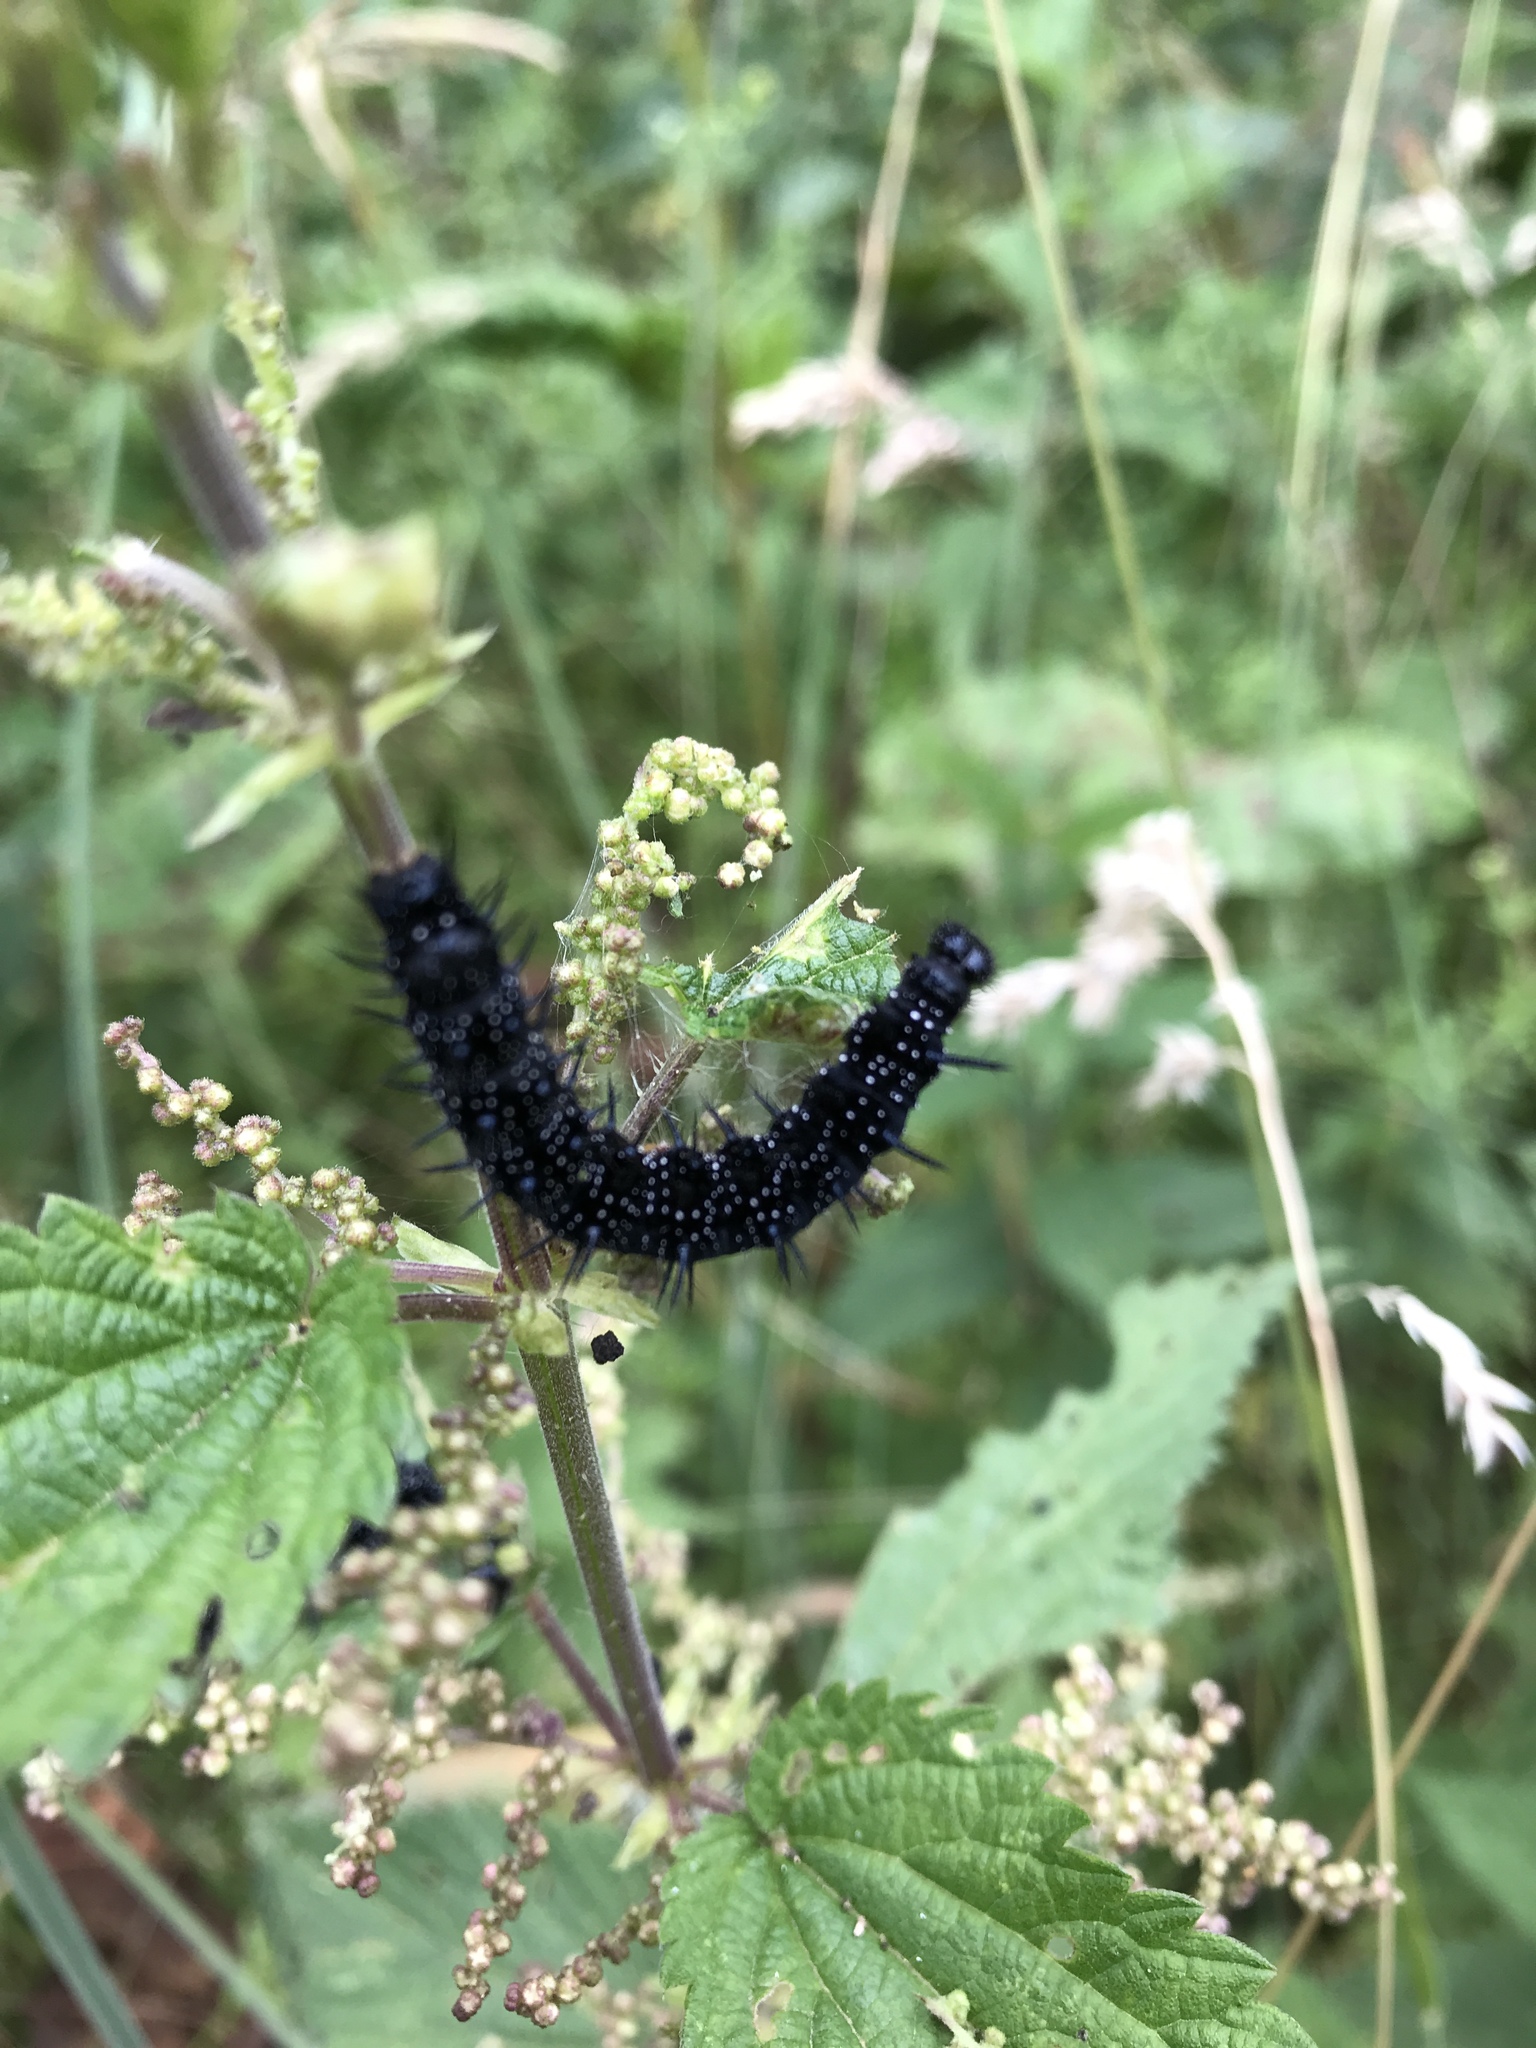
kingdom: Animalia
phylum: Arthropoda
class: Insecta
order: Lepidoptera
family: Nymphalidae
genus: Aglais
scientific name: Aglais io
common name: Peacock
